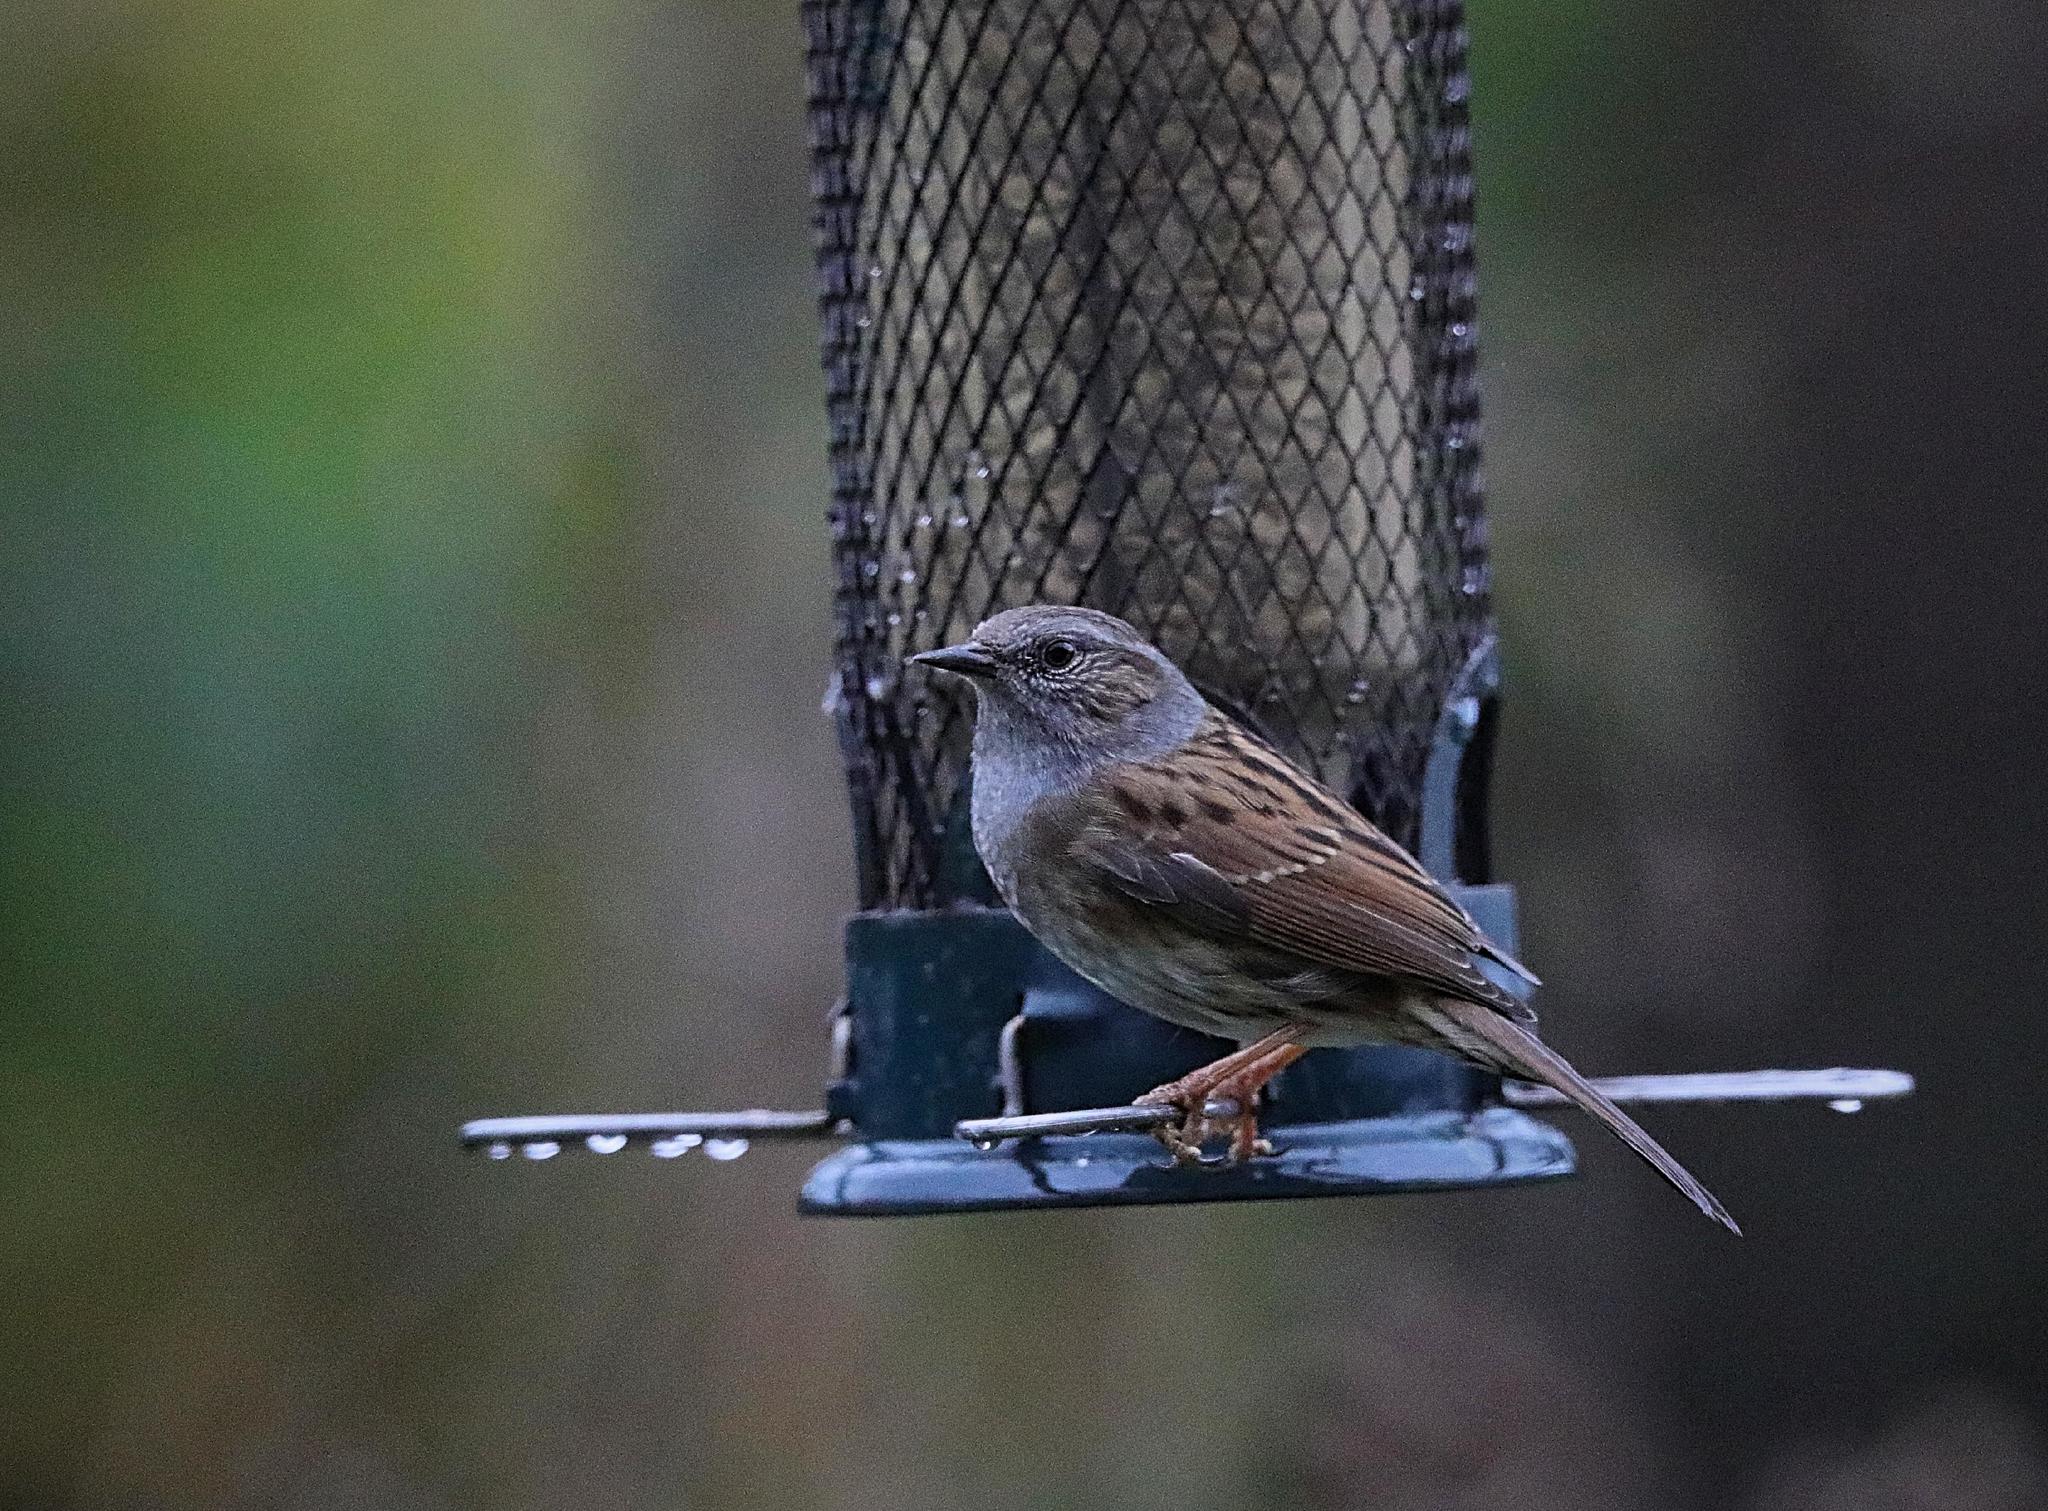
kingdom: Animalia
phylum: Chordata
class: Aves
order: Passeriformes
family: Prunellidae
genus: Prunella
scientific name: Prunella modularis
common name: Dunnock
